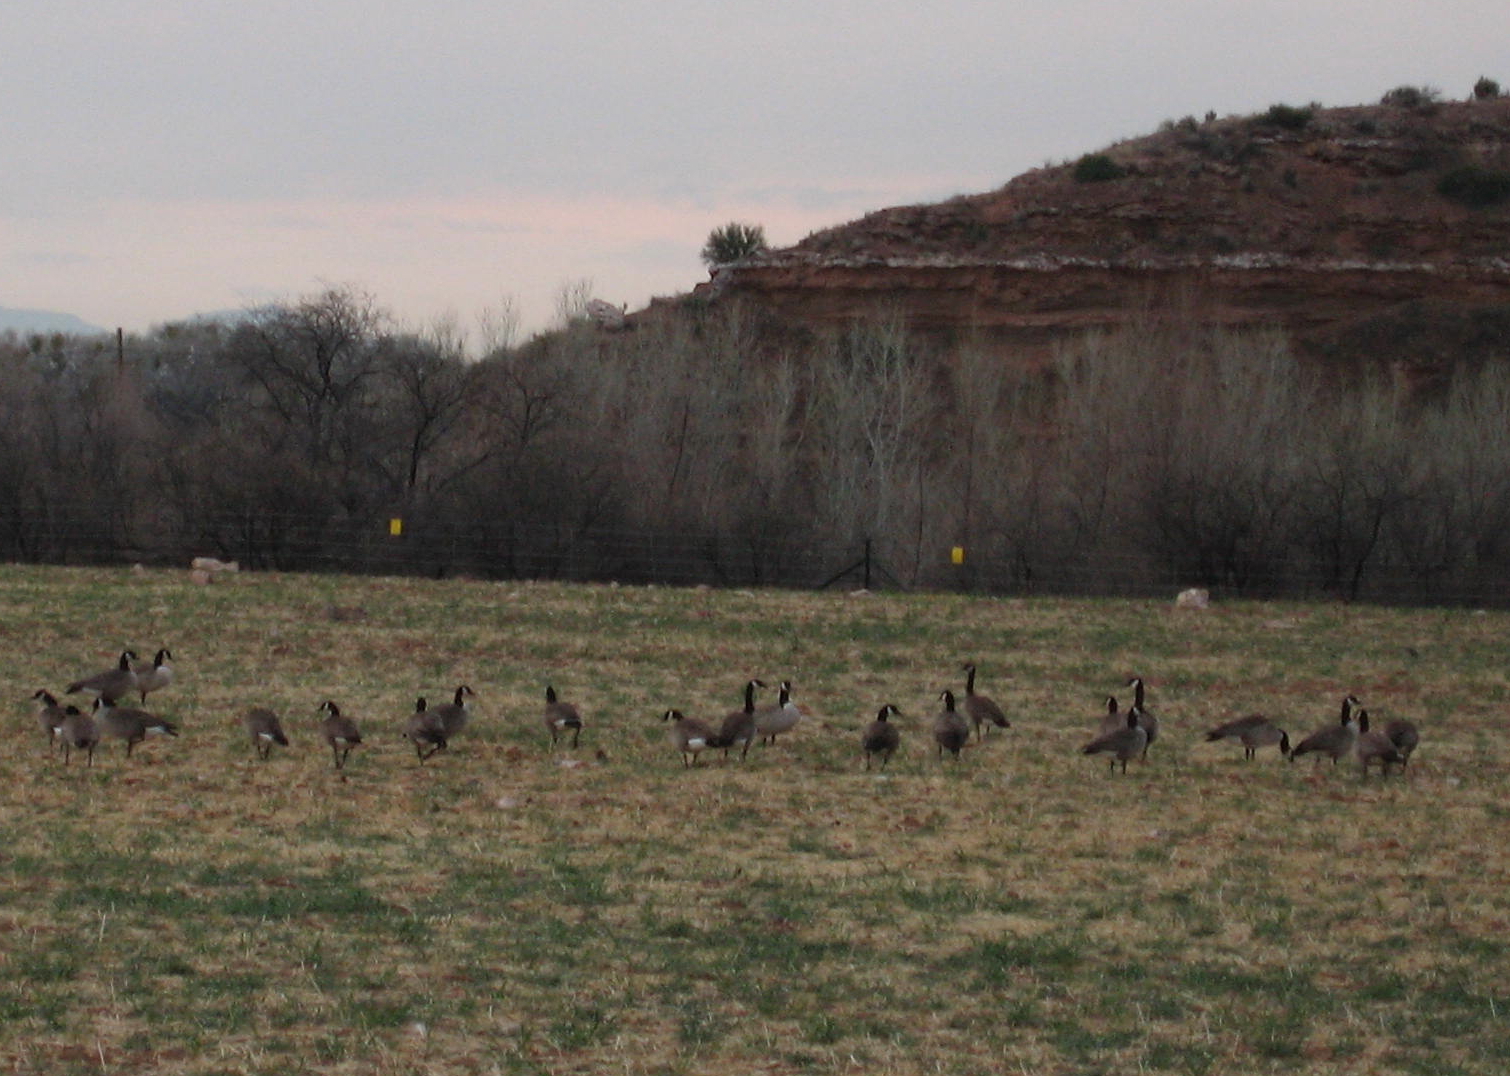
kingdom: Animalia
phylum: Chordata
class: Aves
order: Anseriformes
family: Anatidae
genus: Branta
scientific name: Branta canadensis
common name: Canada goose
